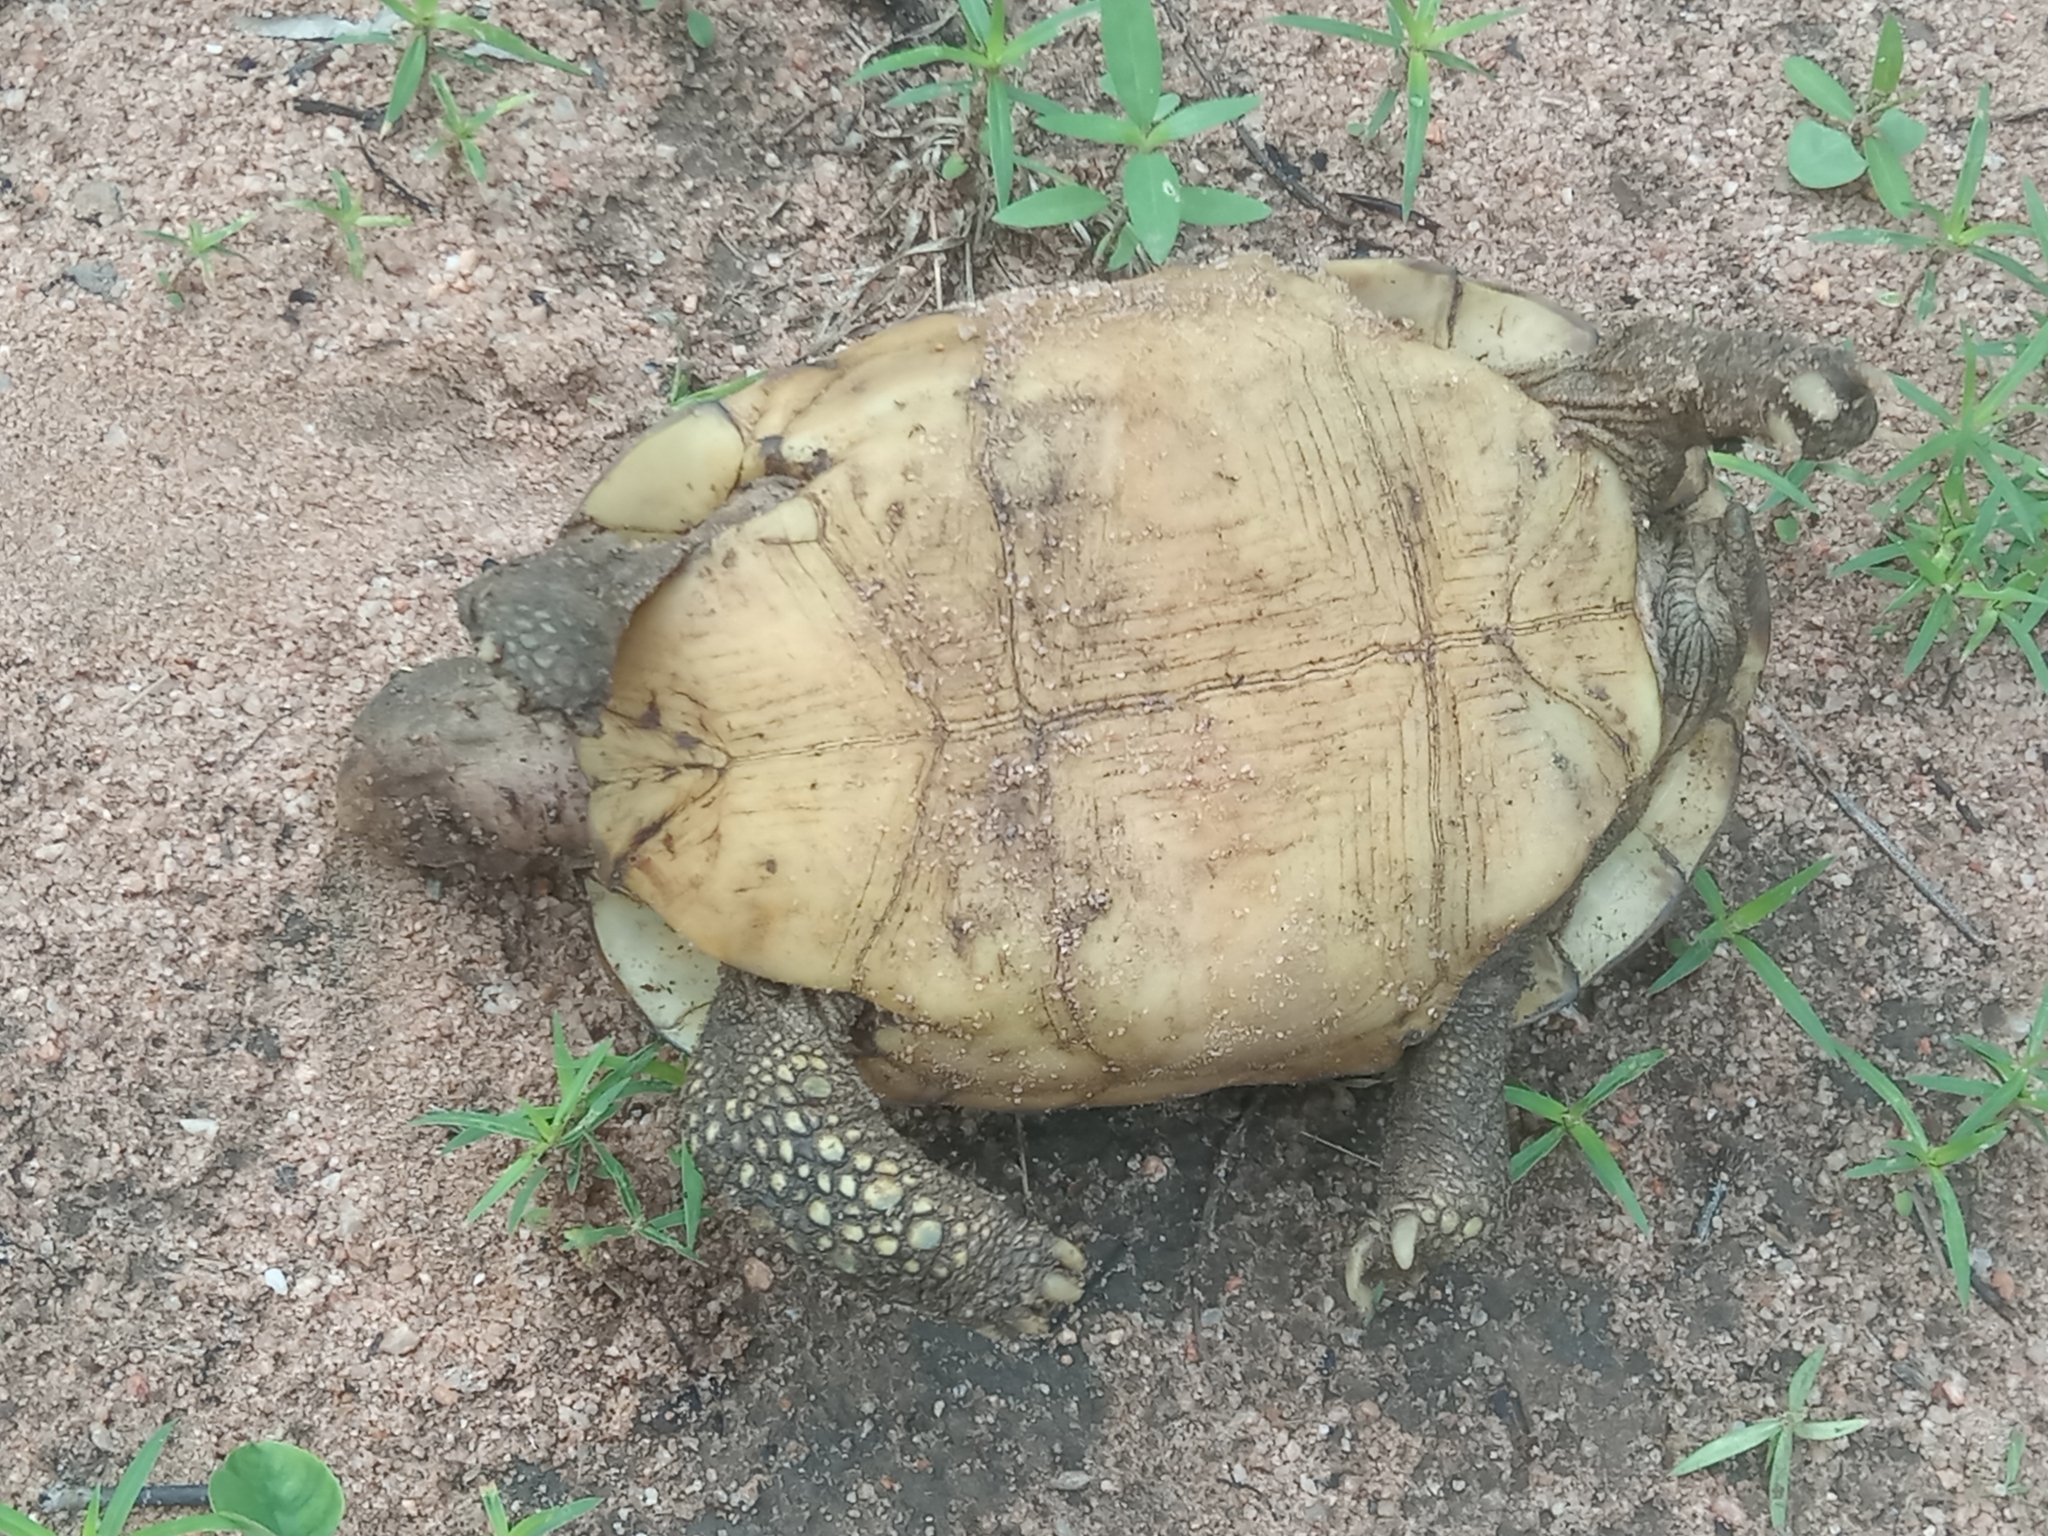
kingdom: Animalia
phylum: Chordata
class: Testudines
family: Testudinidae
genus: Kinixys
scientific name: Kinixys nogueyi
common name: Western hinge-back tortoise
